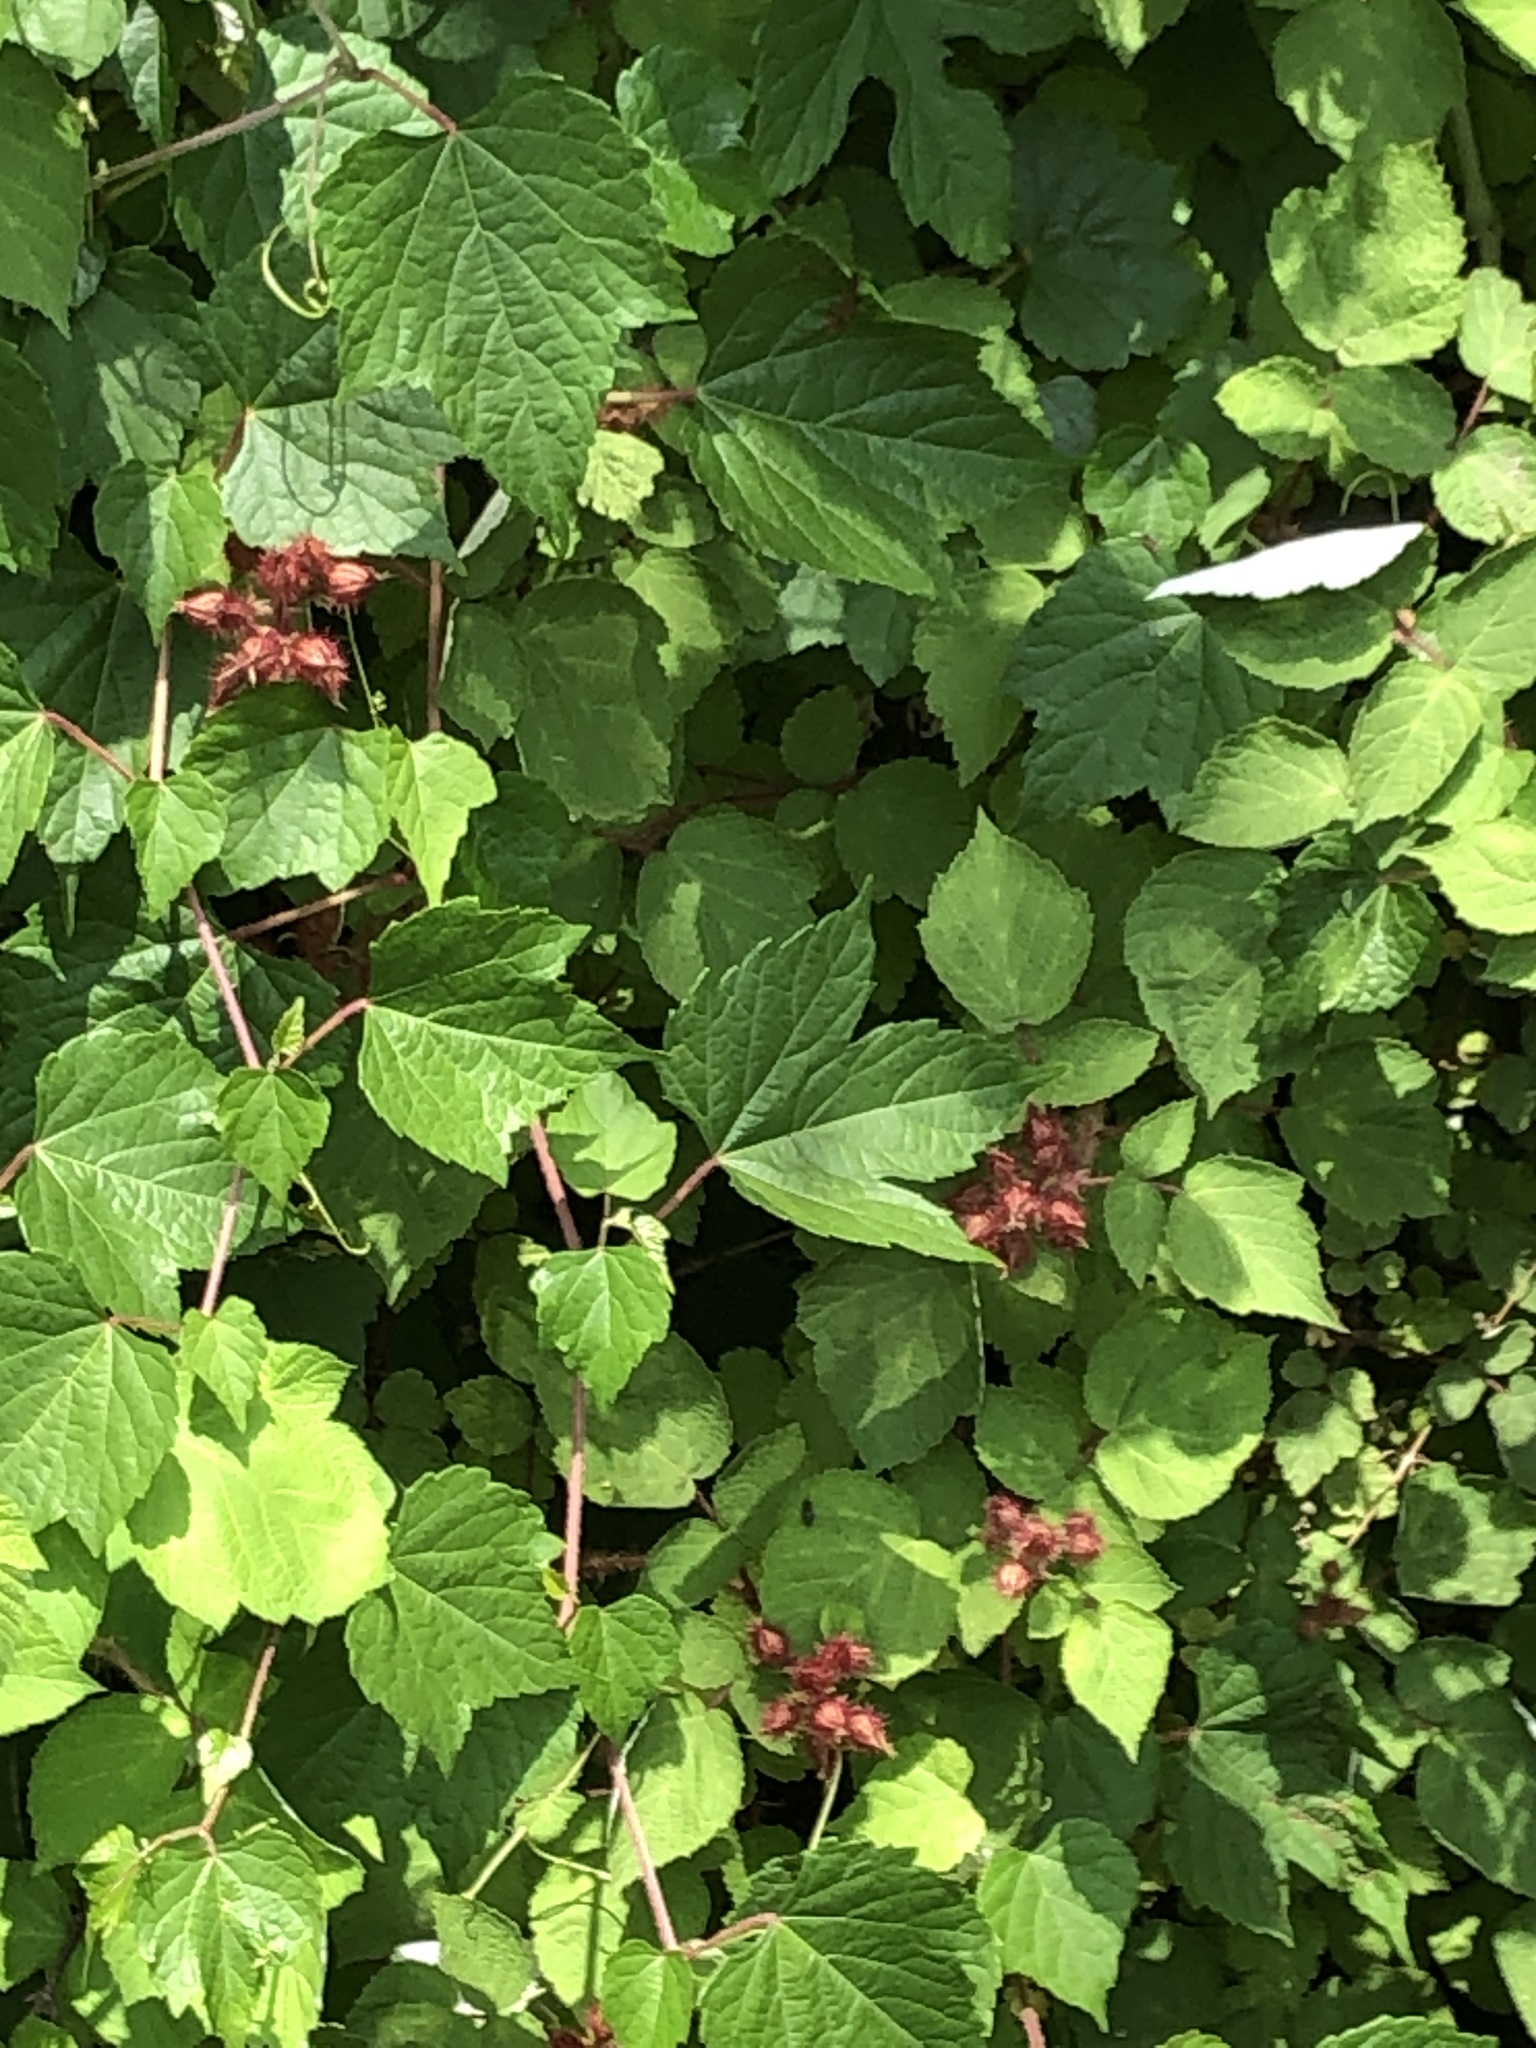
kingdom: Plantae
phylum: Tracheophyta
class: Magnoliopsida
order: Rosales
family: Rosaceae
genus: Rubus
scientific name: Rubus phoenicolasius
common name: Japanese wineberry
